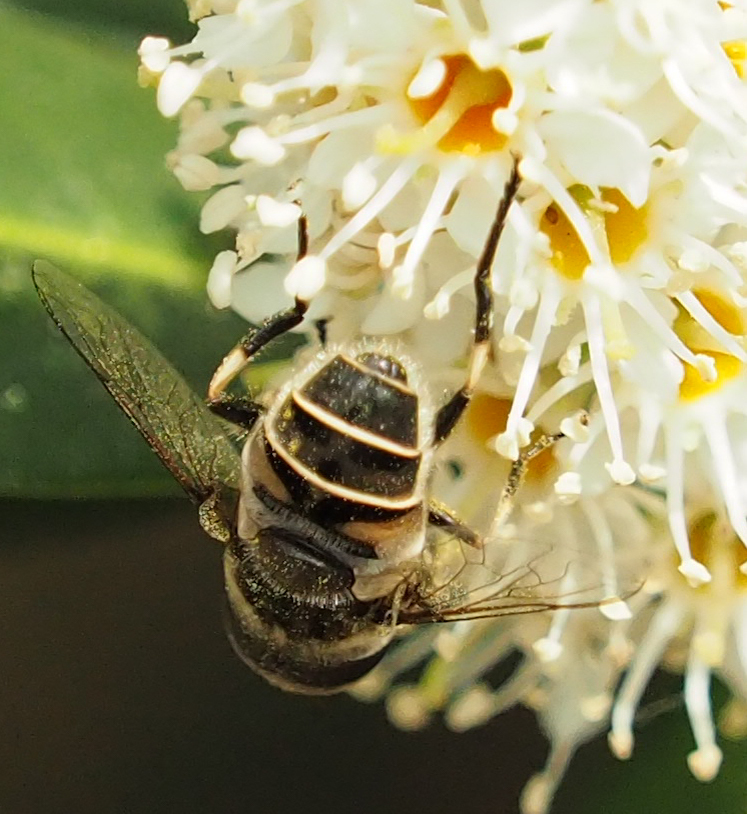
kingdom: Animalia
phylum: Arthropoda
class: Insecta
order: Diptera
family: Syrphidae
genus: Eristalis
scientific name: Eristalis dimidiata
